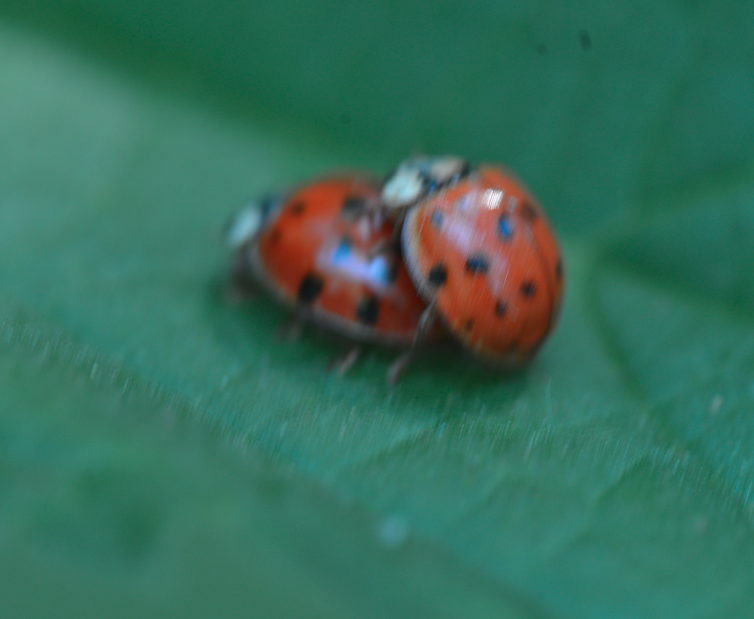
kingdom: Animalia
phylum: Arthropoda
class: Insecta
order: Coleoptera
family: Coccinellidae
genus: Harmonia
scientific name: Harmonia axyridis
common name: Harlequin ladybird
